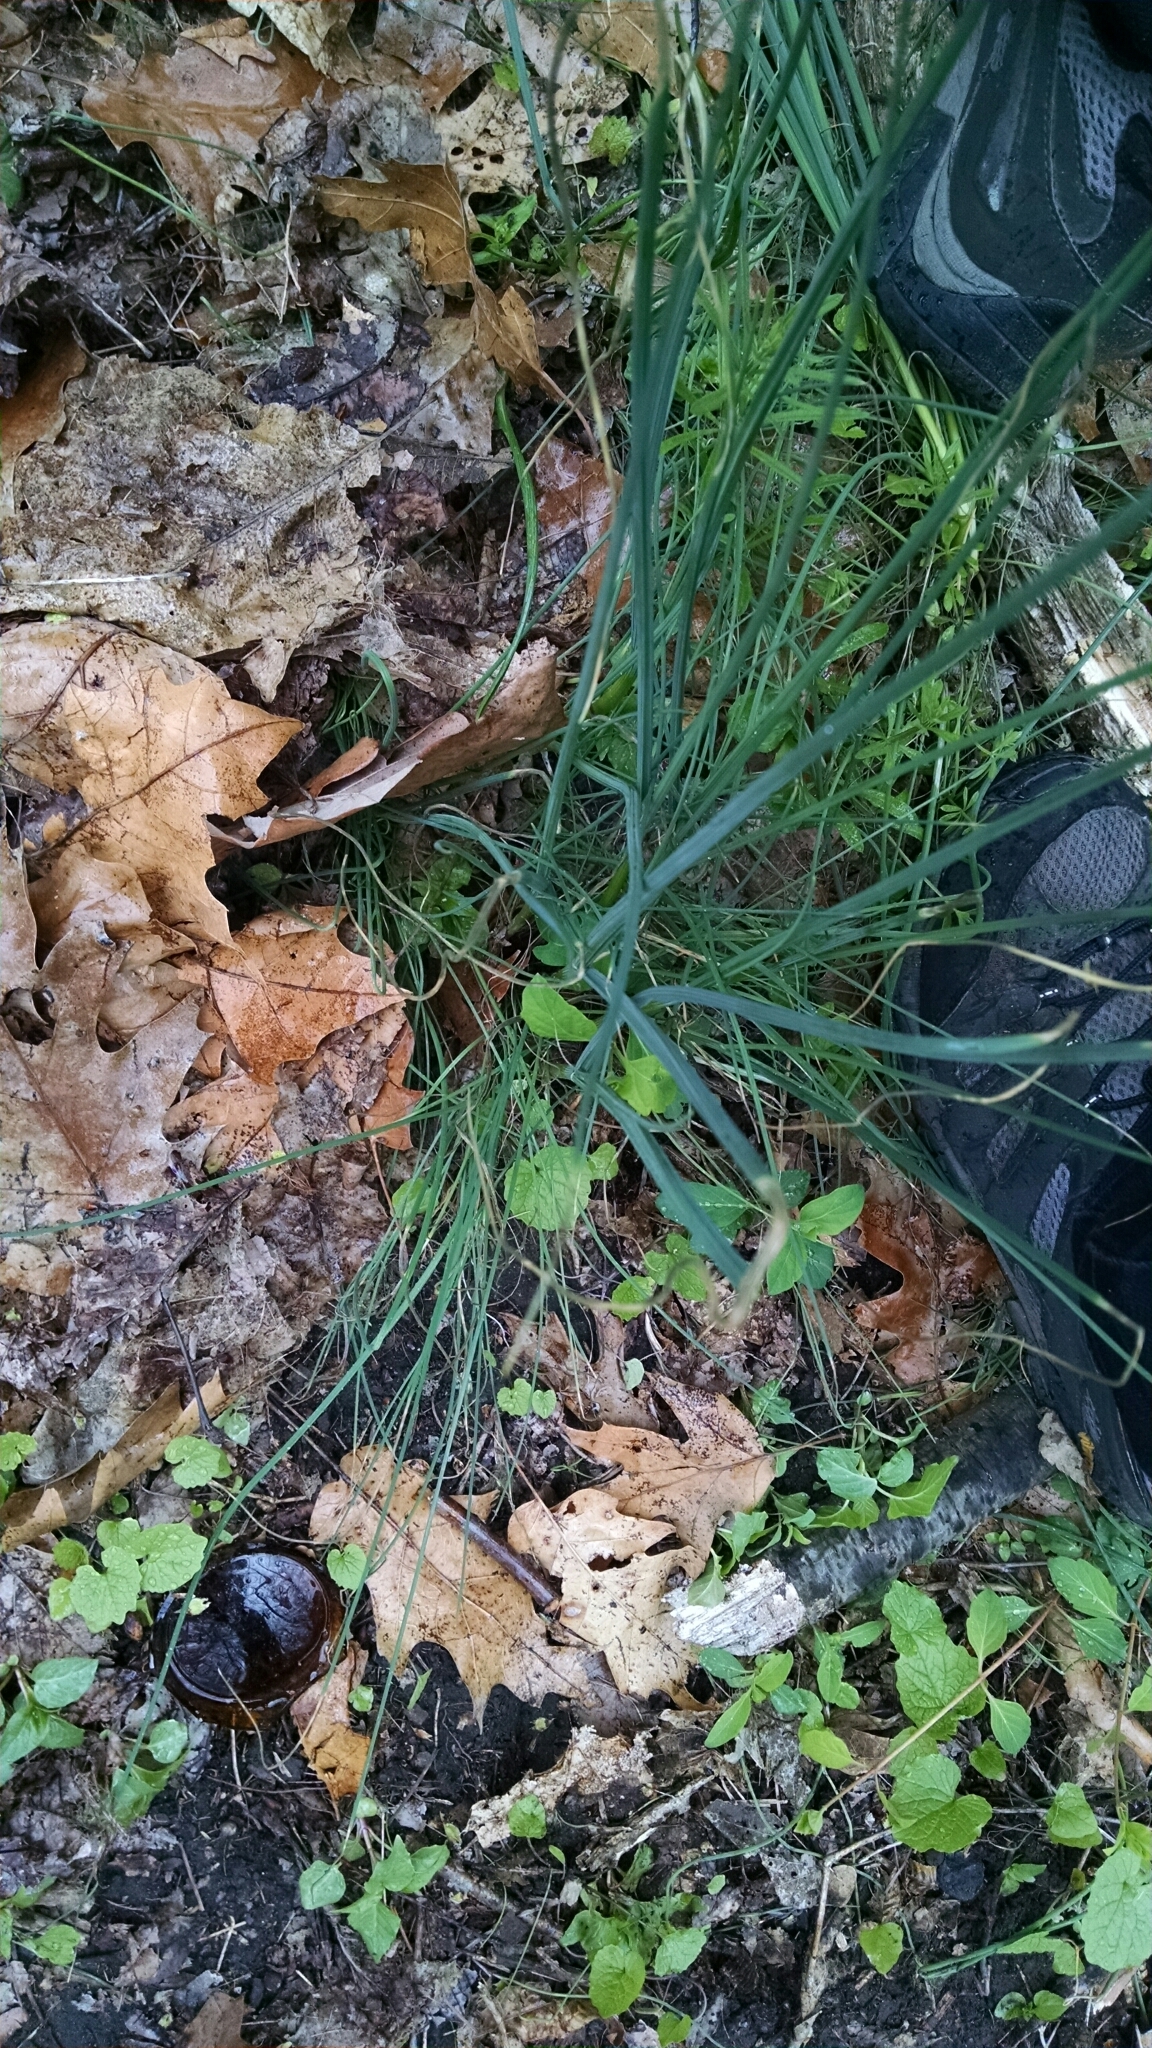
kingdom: Plantae
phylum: Tracheophyta
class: Liliopsida
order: Asparagales
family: Amaryllidaceae
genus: Allium
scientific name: Allium vineale
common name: Crow garlic
